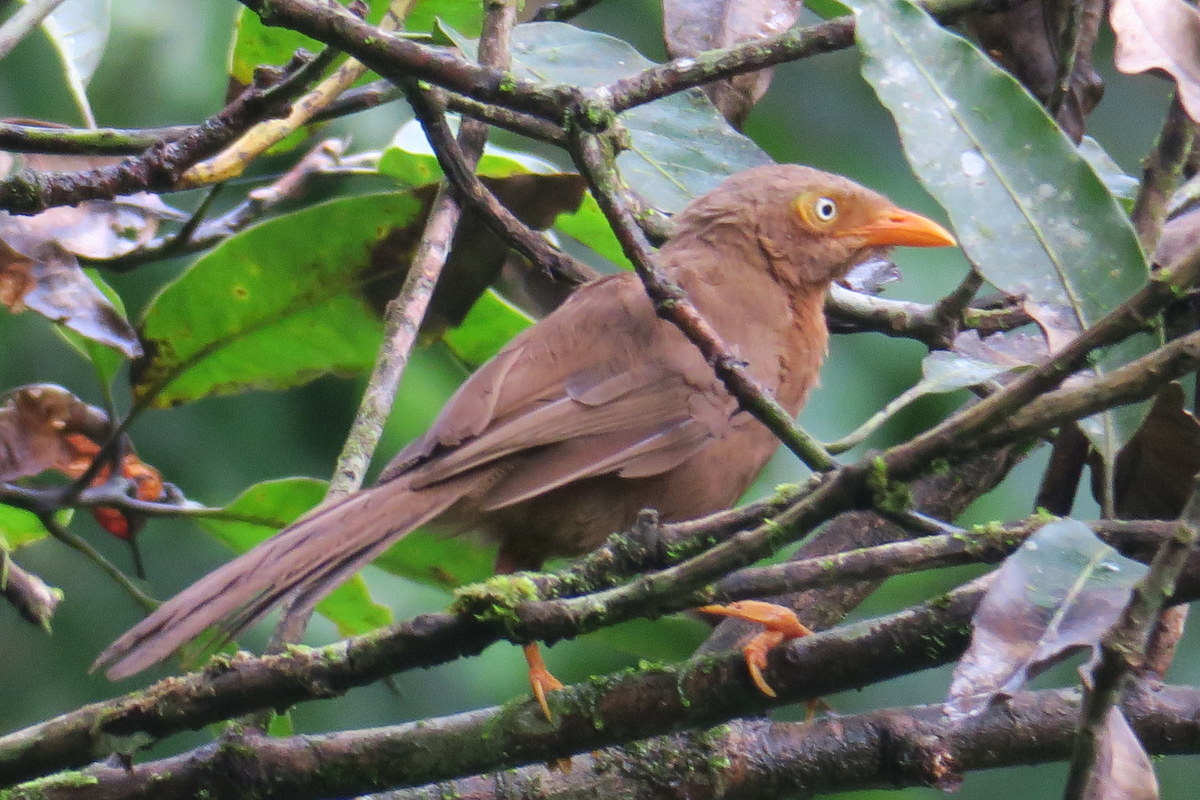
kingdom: Animalia
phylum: Chordata
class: Aves
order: Passeriformes
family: Leiothrichidae
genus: Turdoides
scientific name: Turdoides rufescens
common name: Orange-billed babbler
